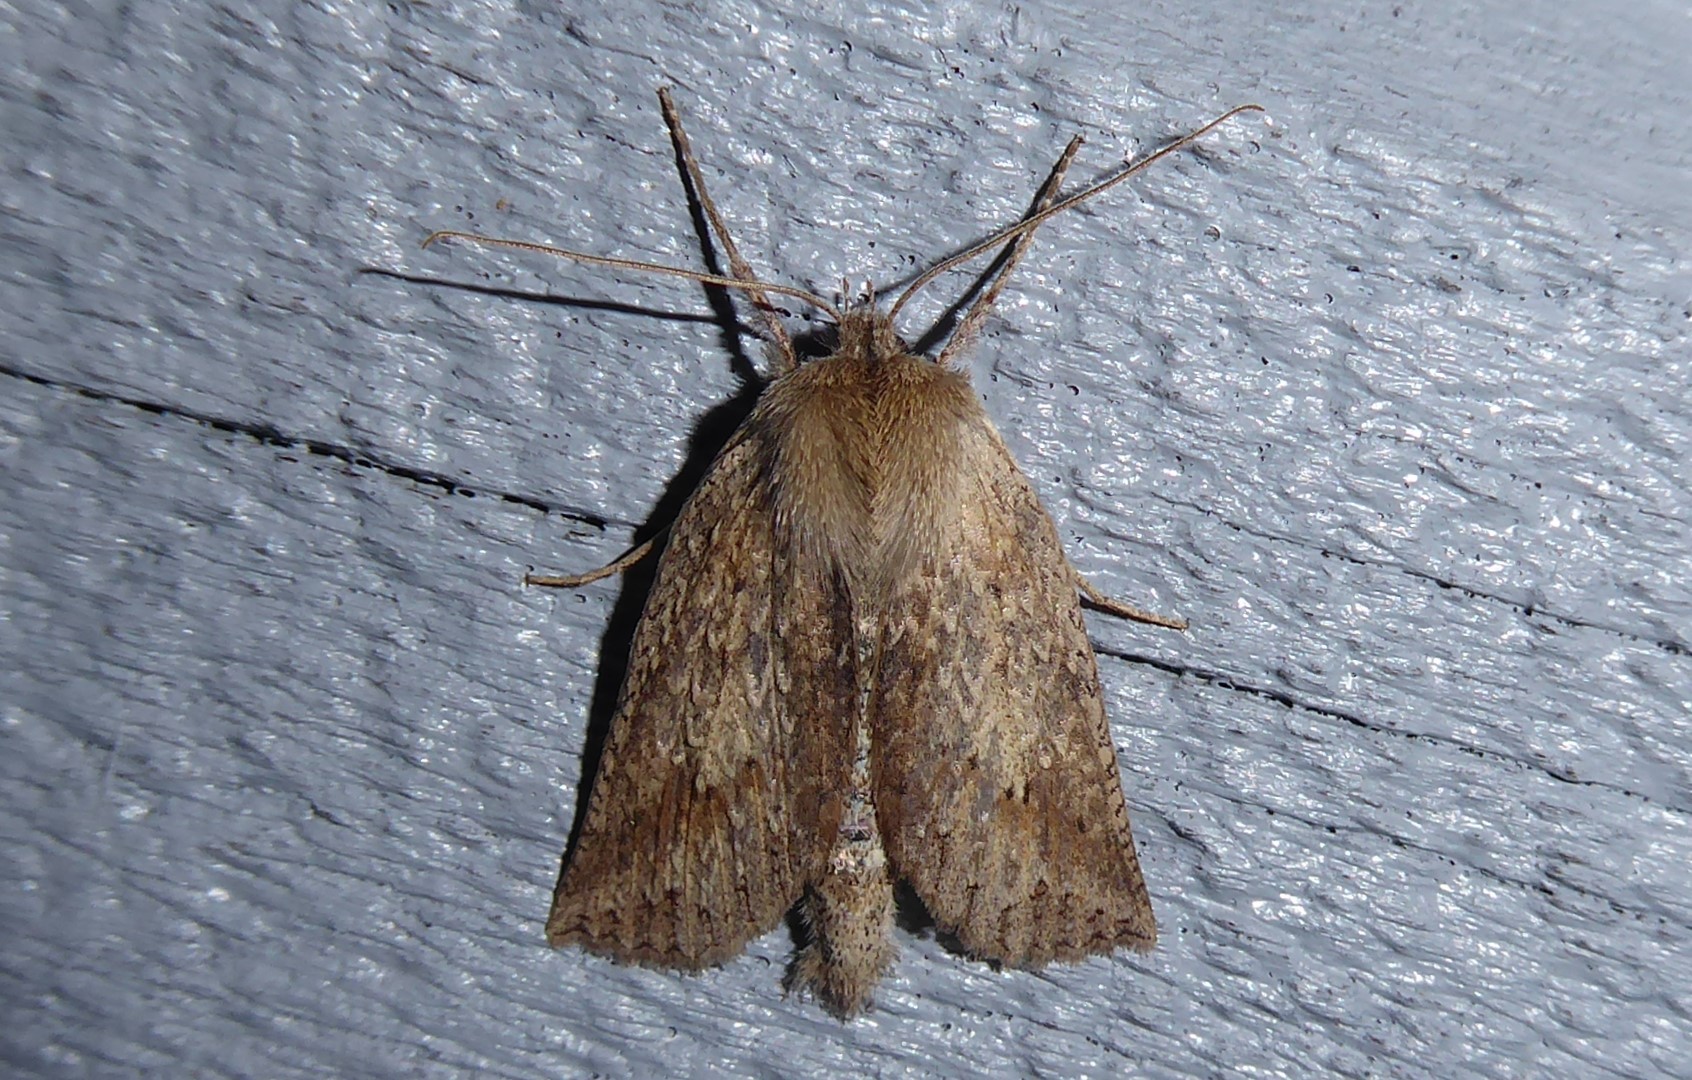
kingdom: Animalia
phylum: Arthropoda
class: Insecta
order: Lepidoptera
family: Geometridae
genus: Declana
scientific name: Declana leptomera
